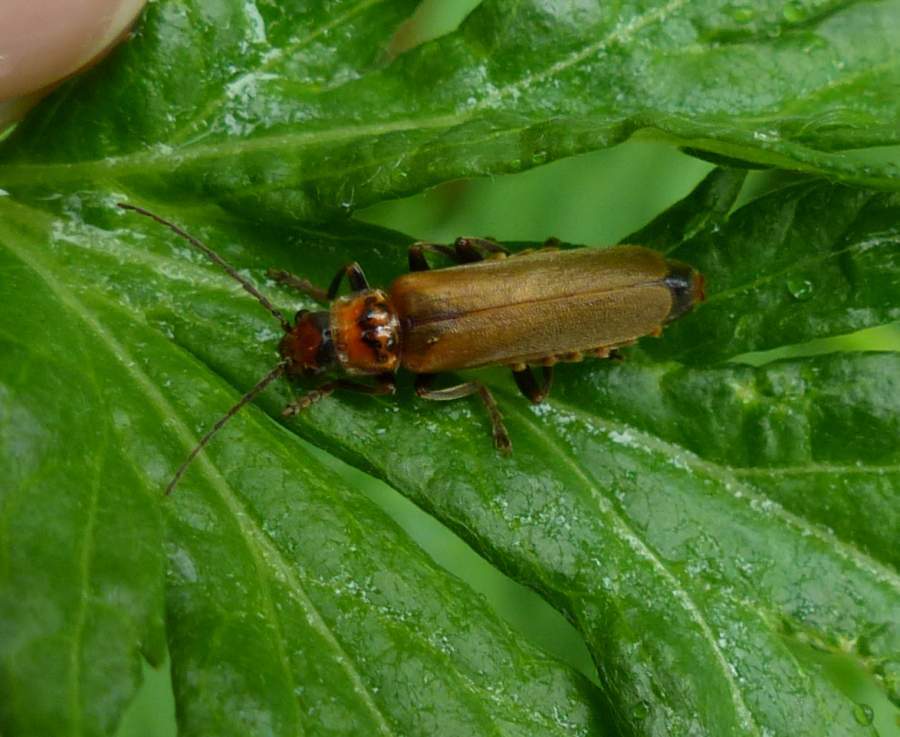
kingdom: Animalia
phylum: Arthropoda
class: Insecta
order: Coleoptera
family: Cantharidae
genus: Cantharis
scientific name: Cantharis rufa
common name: Red-spotted soldier beetle
